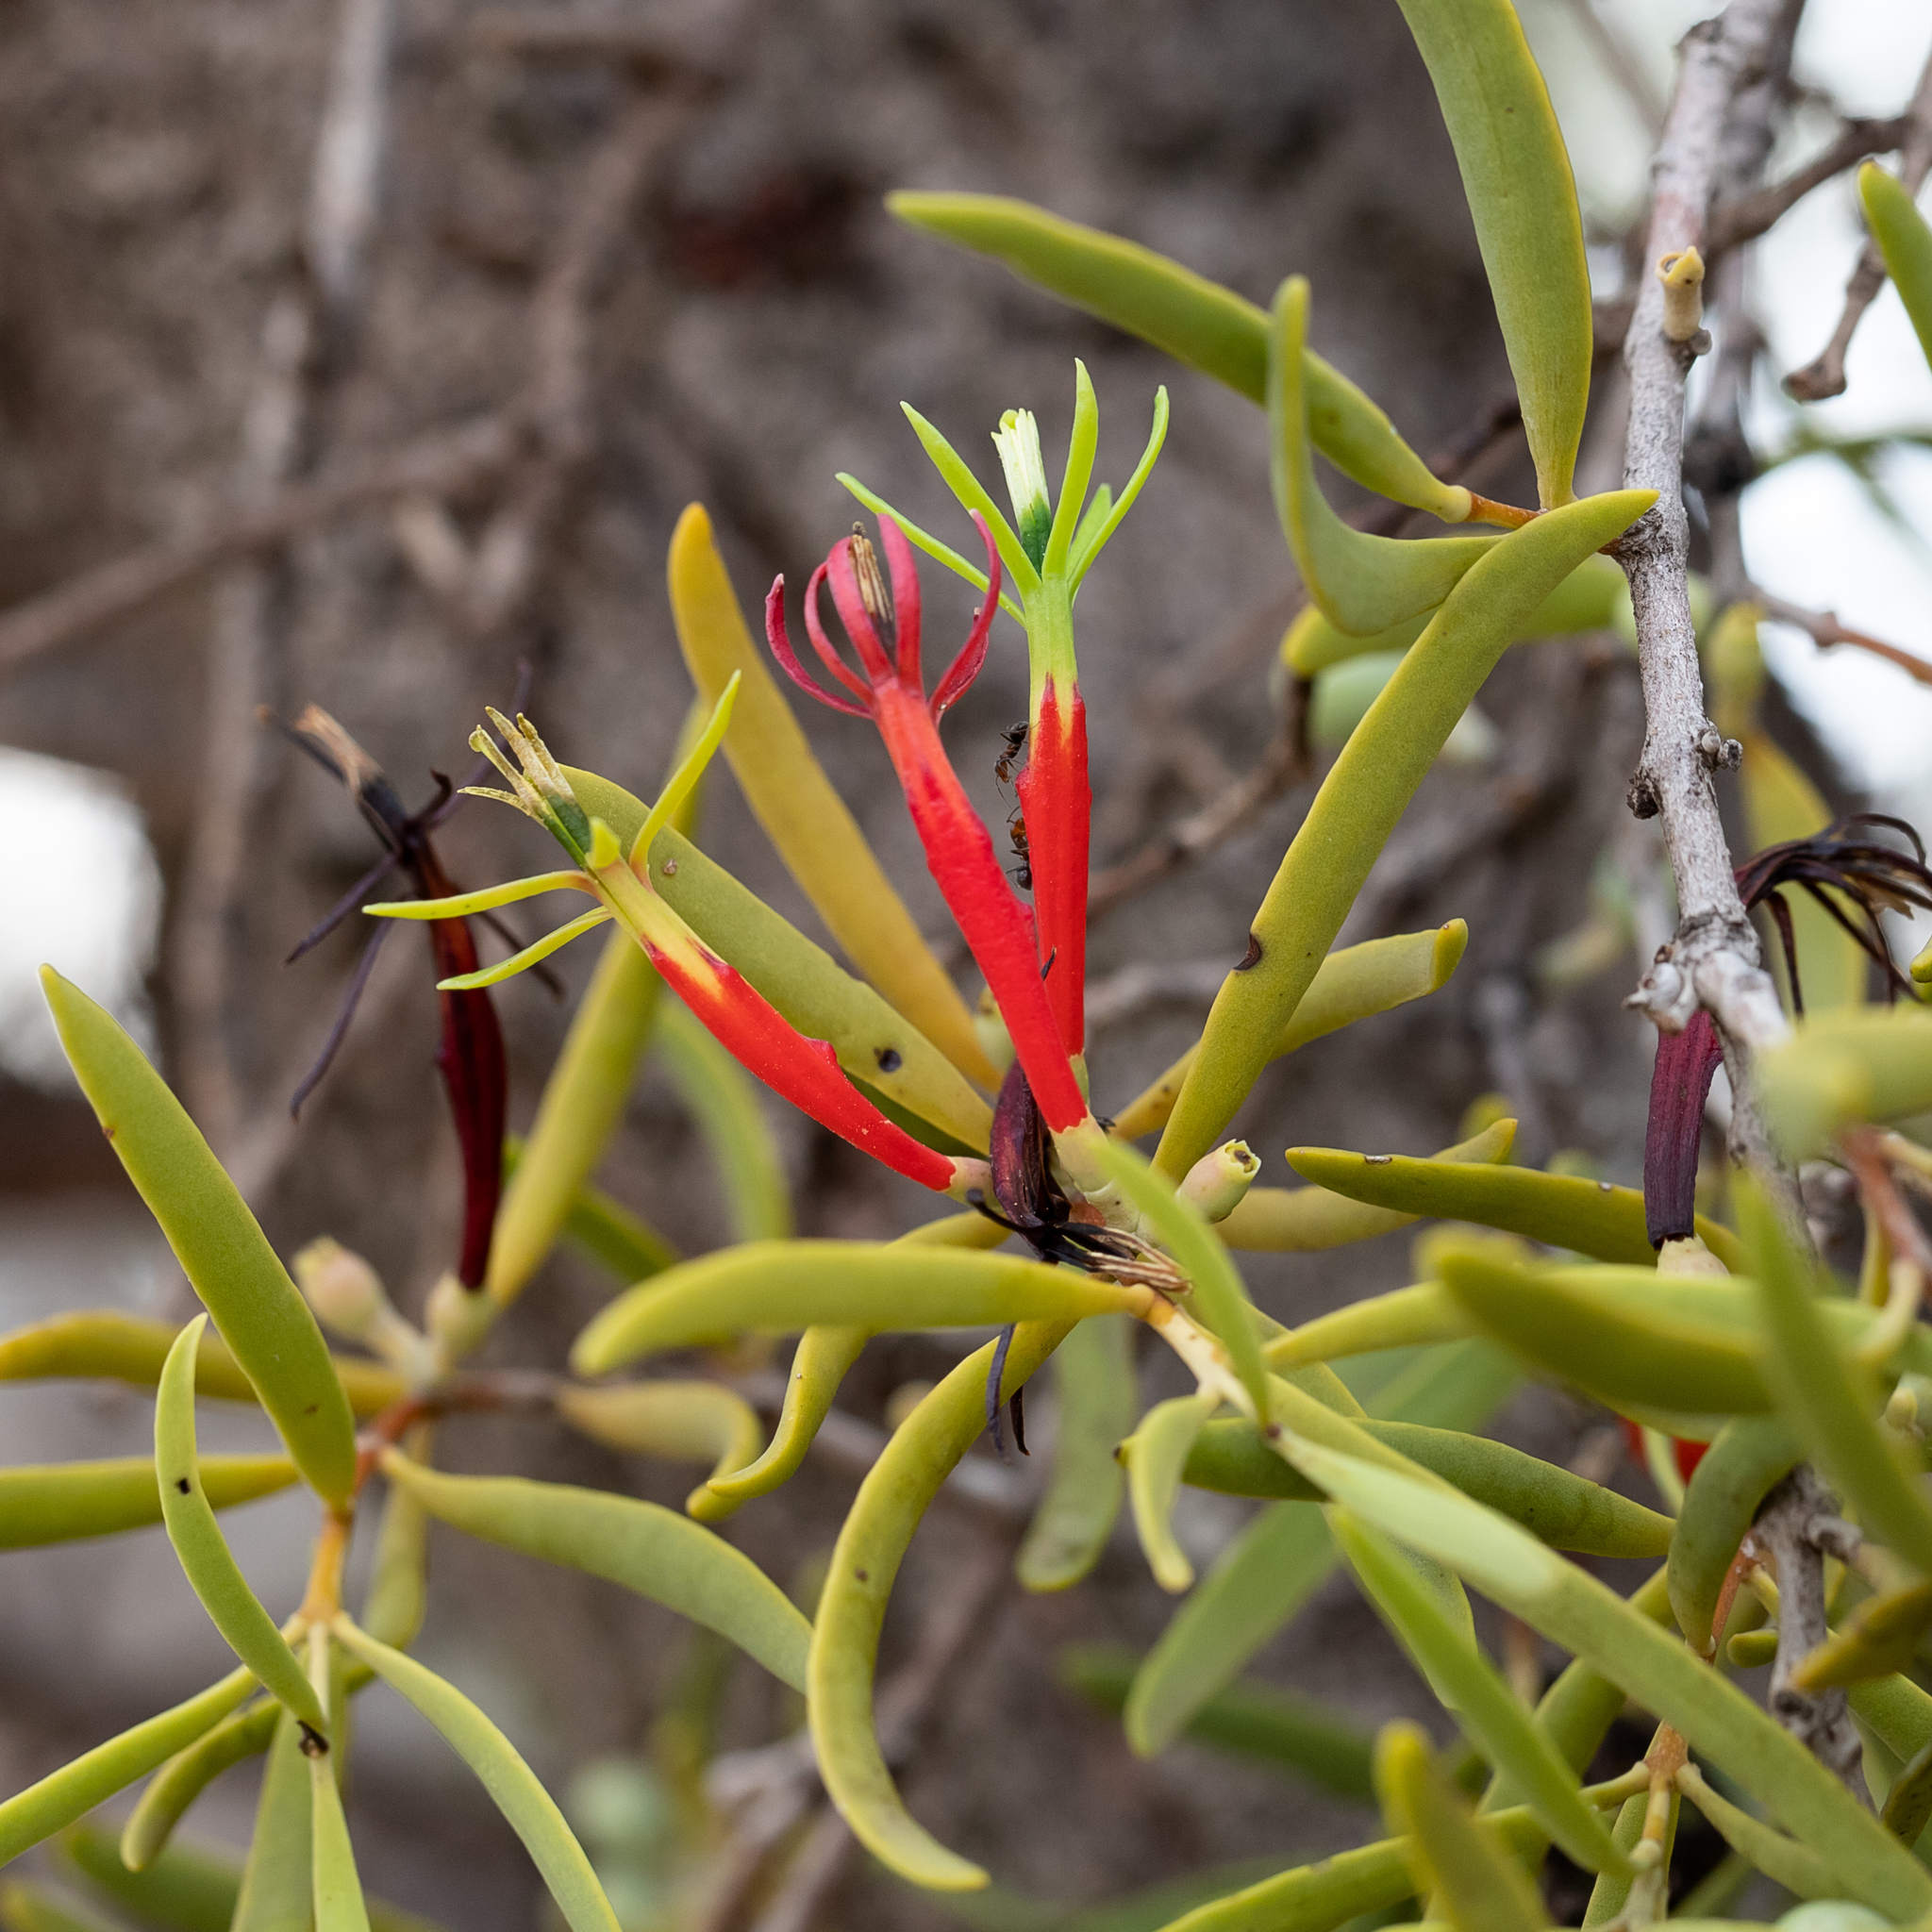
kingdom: Plantae
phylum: Tracheophyta
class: Magnoliopsida
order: Santalales
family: Loranthaceae
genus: Lysiana
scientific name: Lysiana exocarpi
